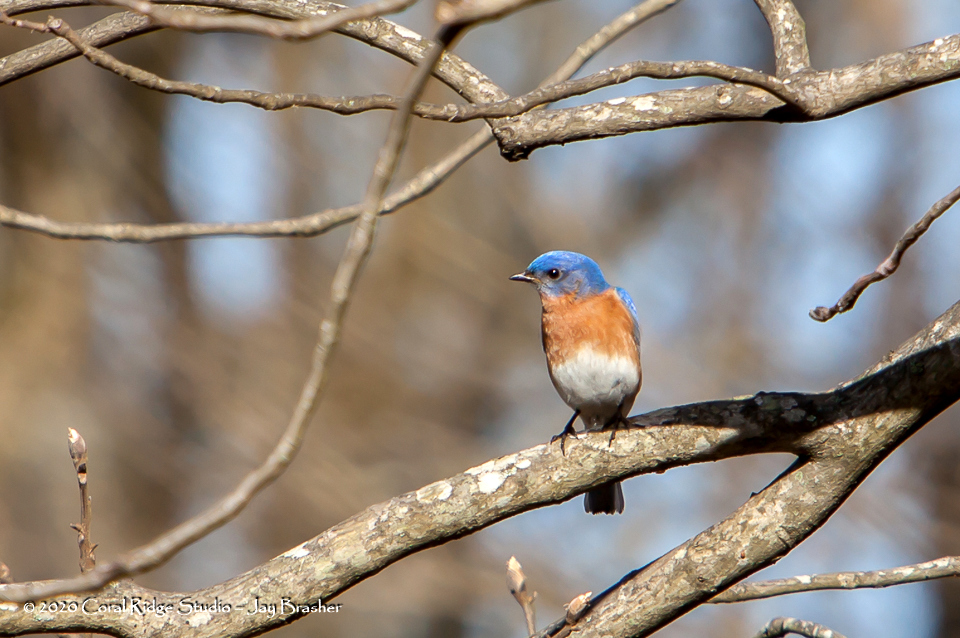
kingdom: Animalia
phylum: Chordata
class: Aves
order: Passeriformes
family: Turdidae
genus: Sialia
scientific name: Sialia sialis
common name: Eastern bluebird
